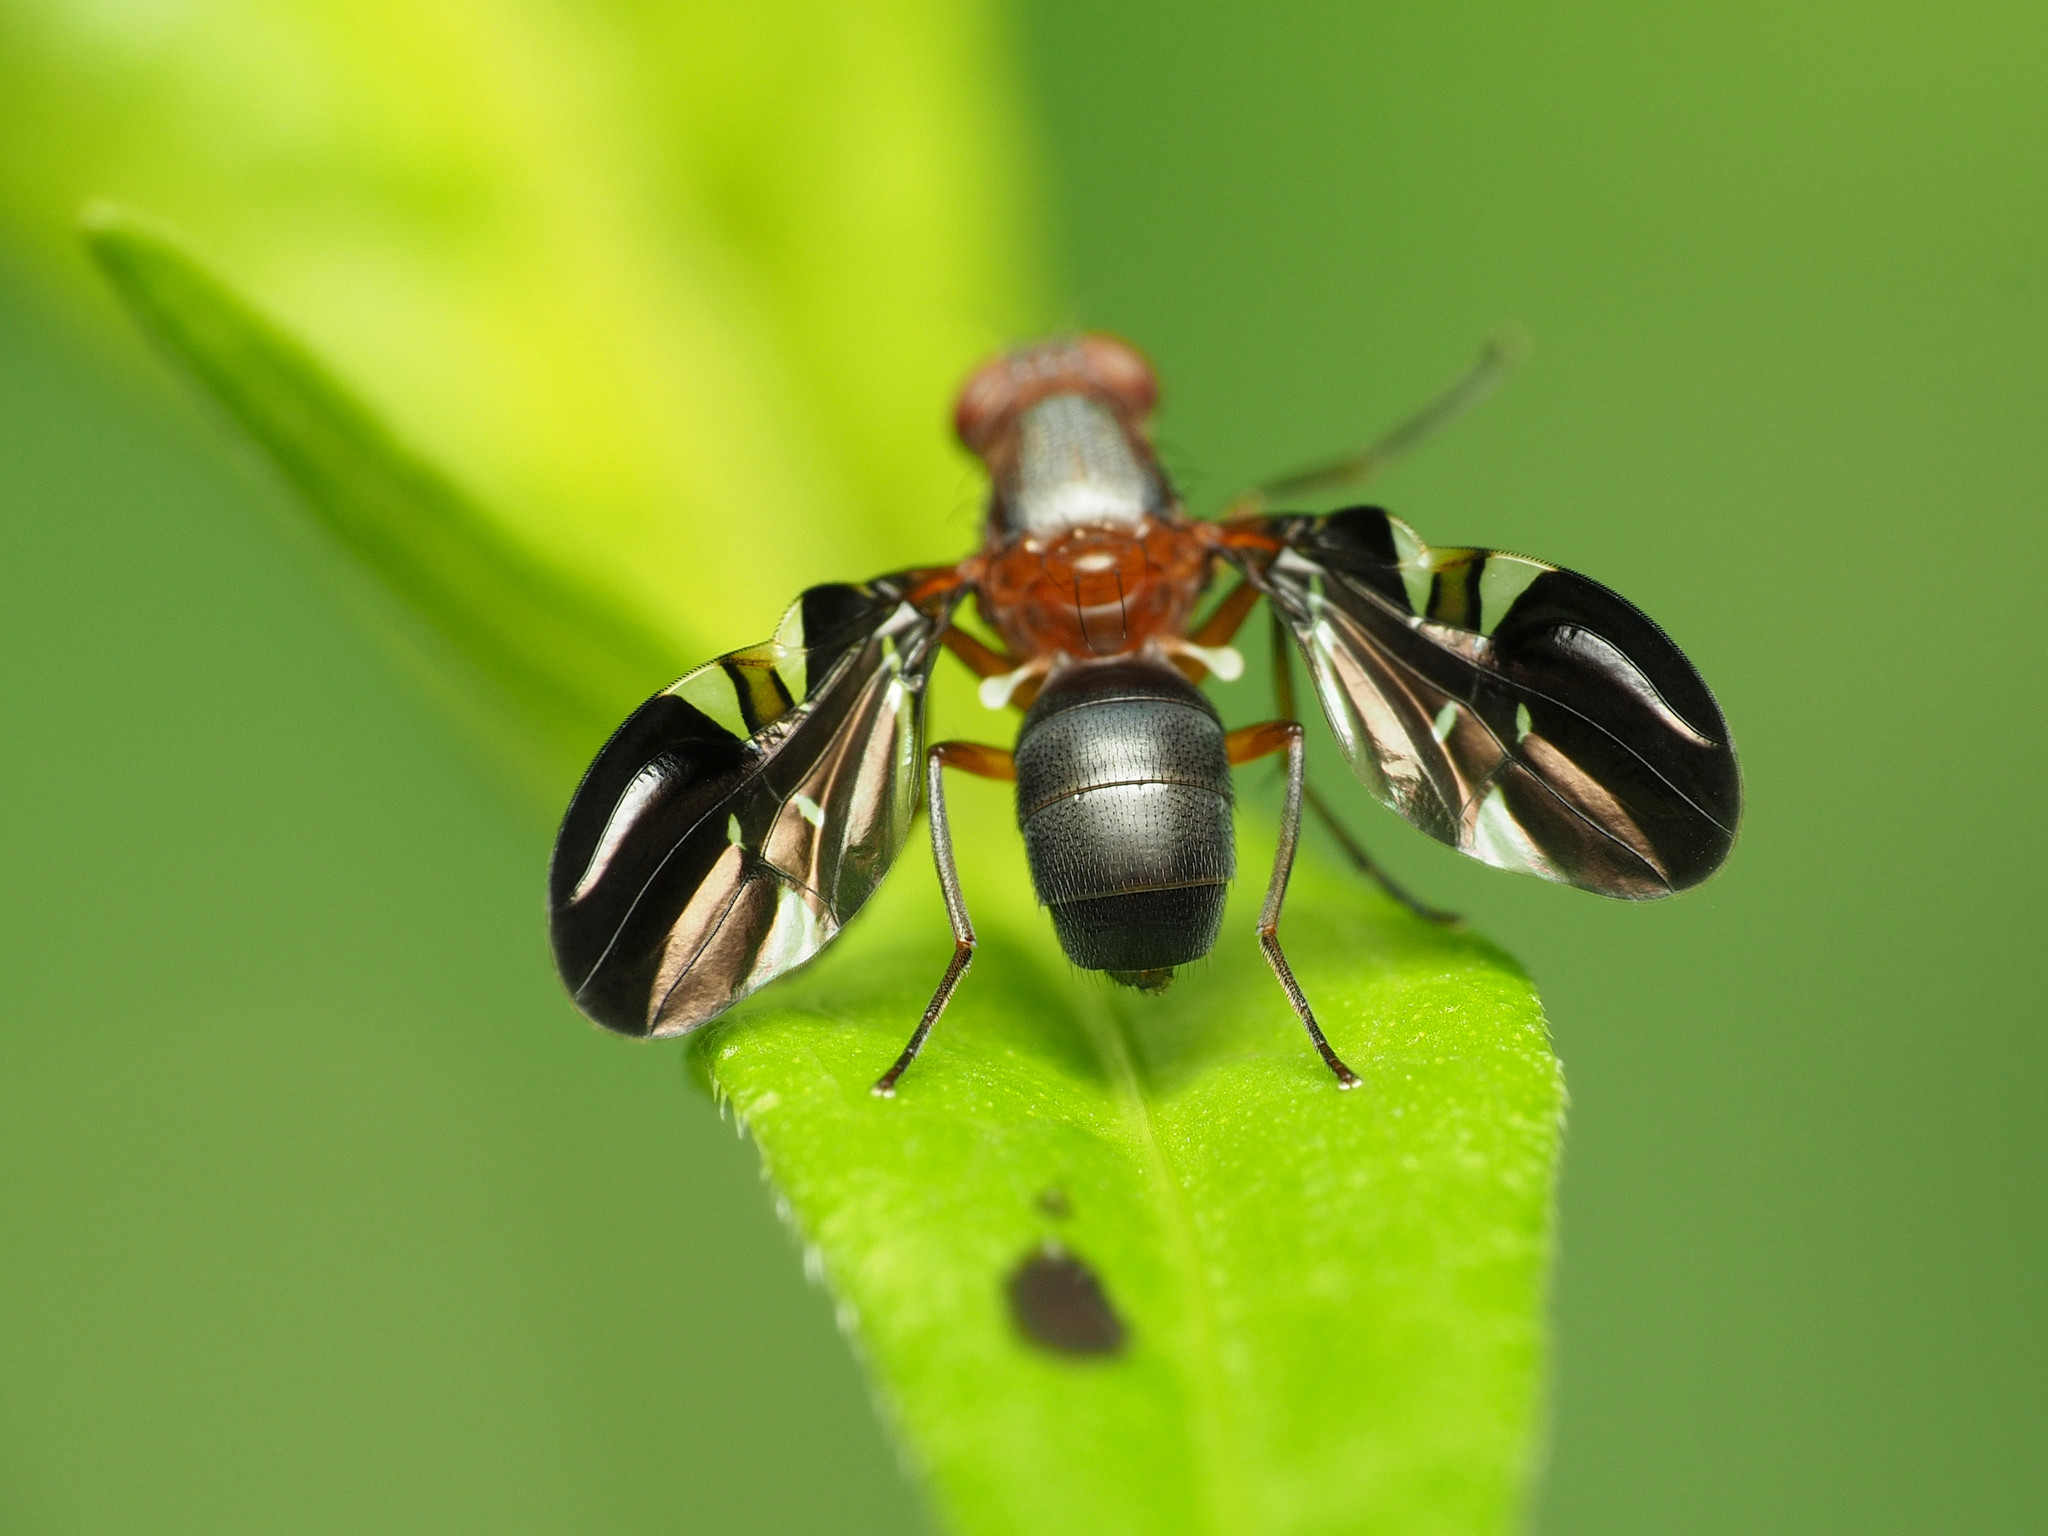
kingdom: Animalia
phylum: Arthropoda
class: Insecta
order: Diptera
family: Ulidiidae
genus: Delphinia
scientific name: Delphinia picta
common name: Common picture-winged fly
